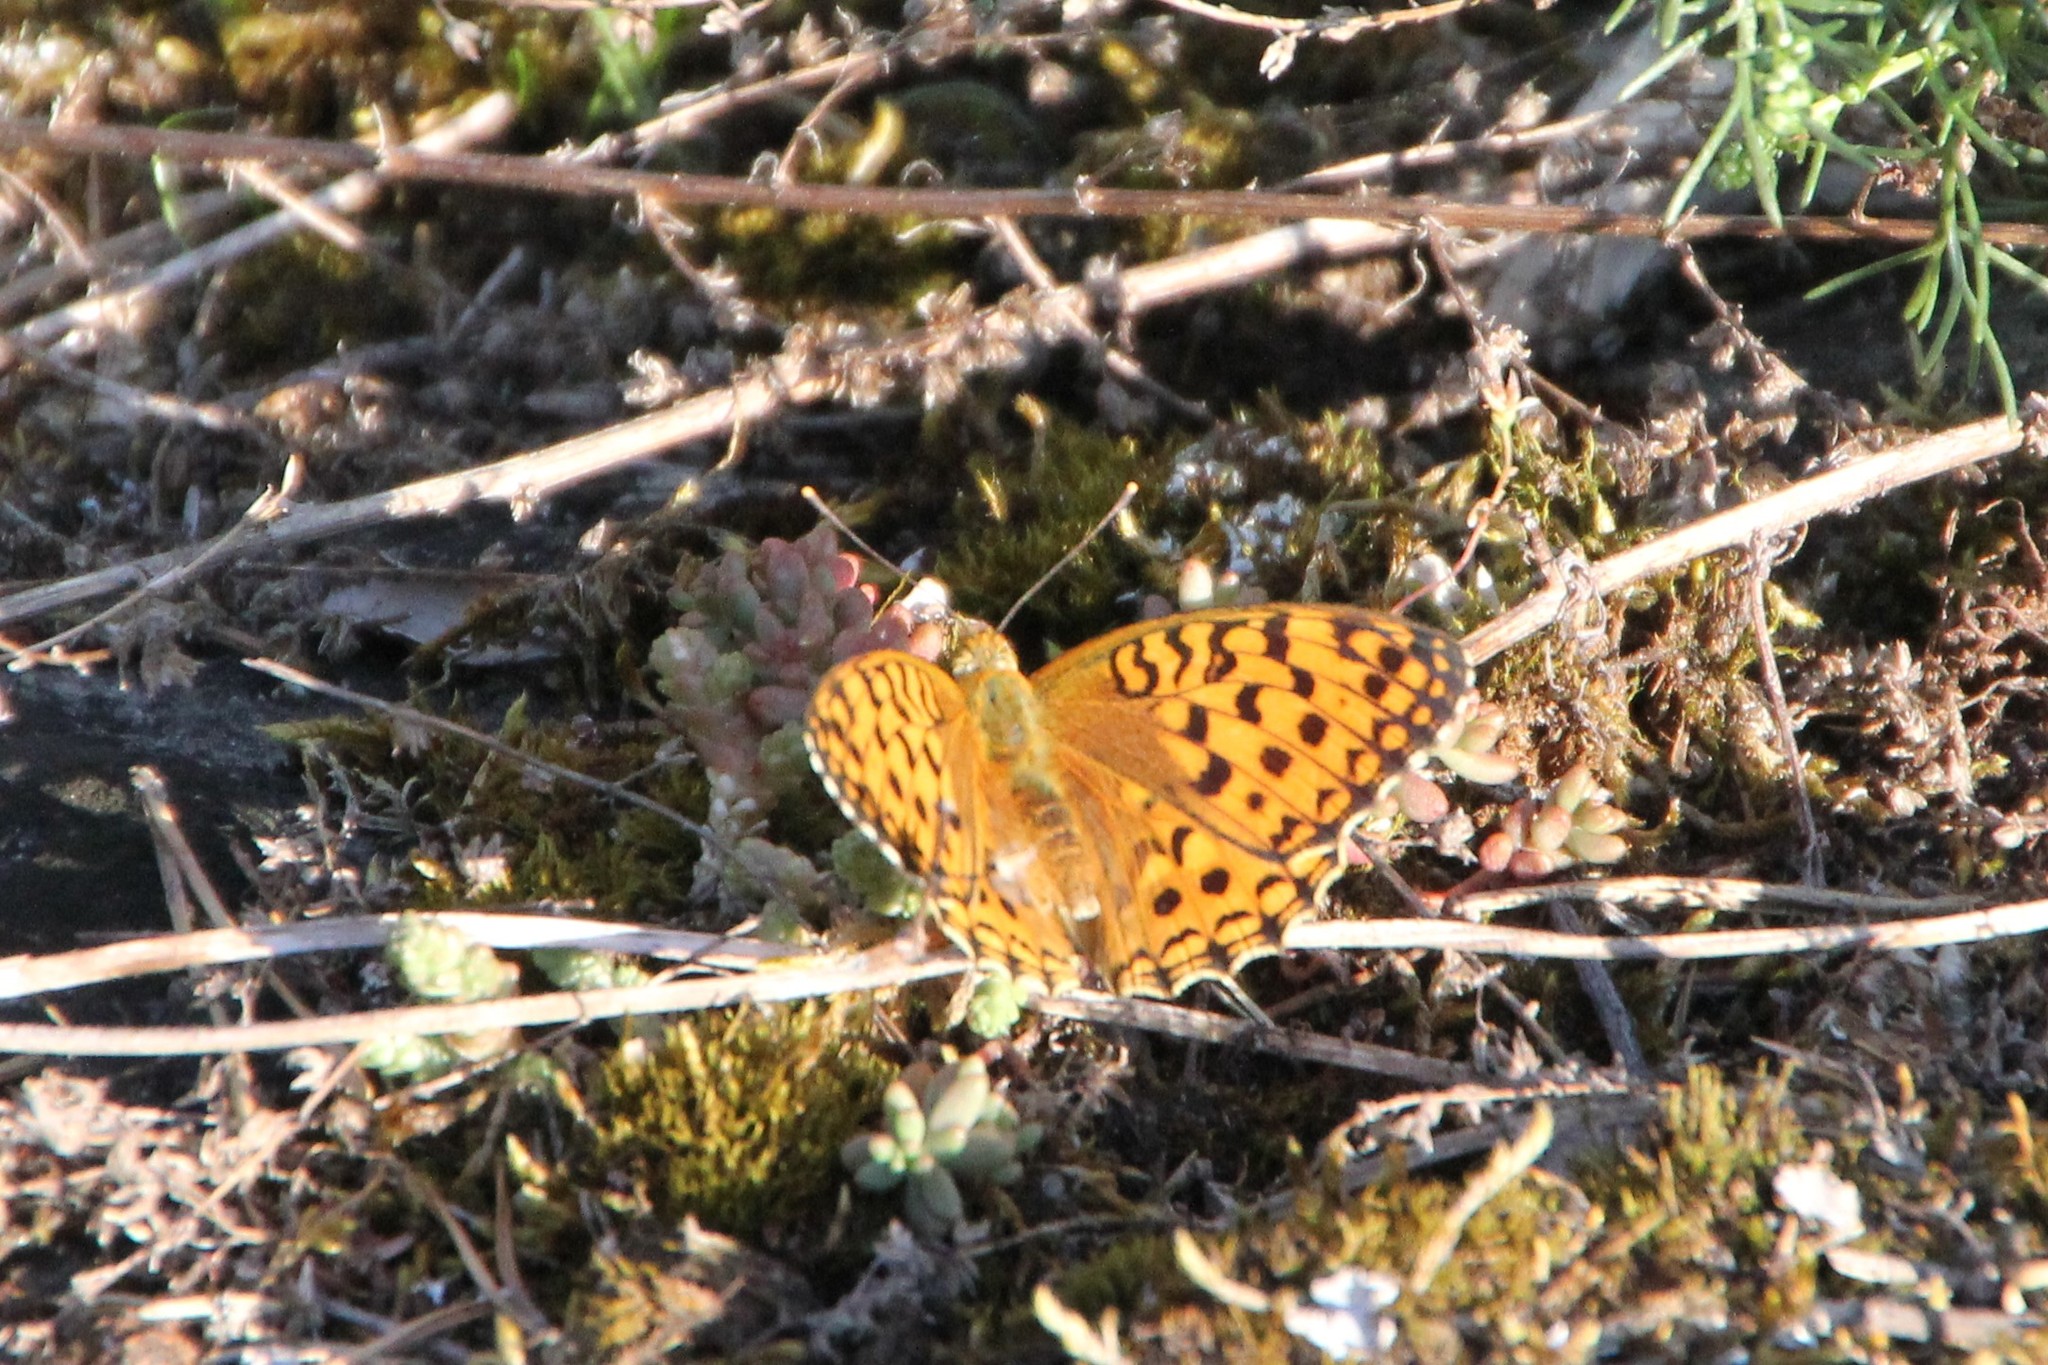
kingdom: Animalia
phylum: Arthropoda
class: Insecta
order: Lepidoptera
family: Nymphalidae
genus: Fabriciana
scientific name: Fabriciana adippe
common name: High brown fritillary
